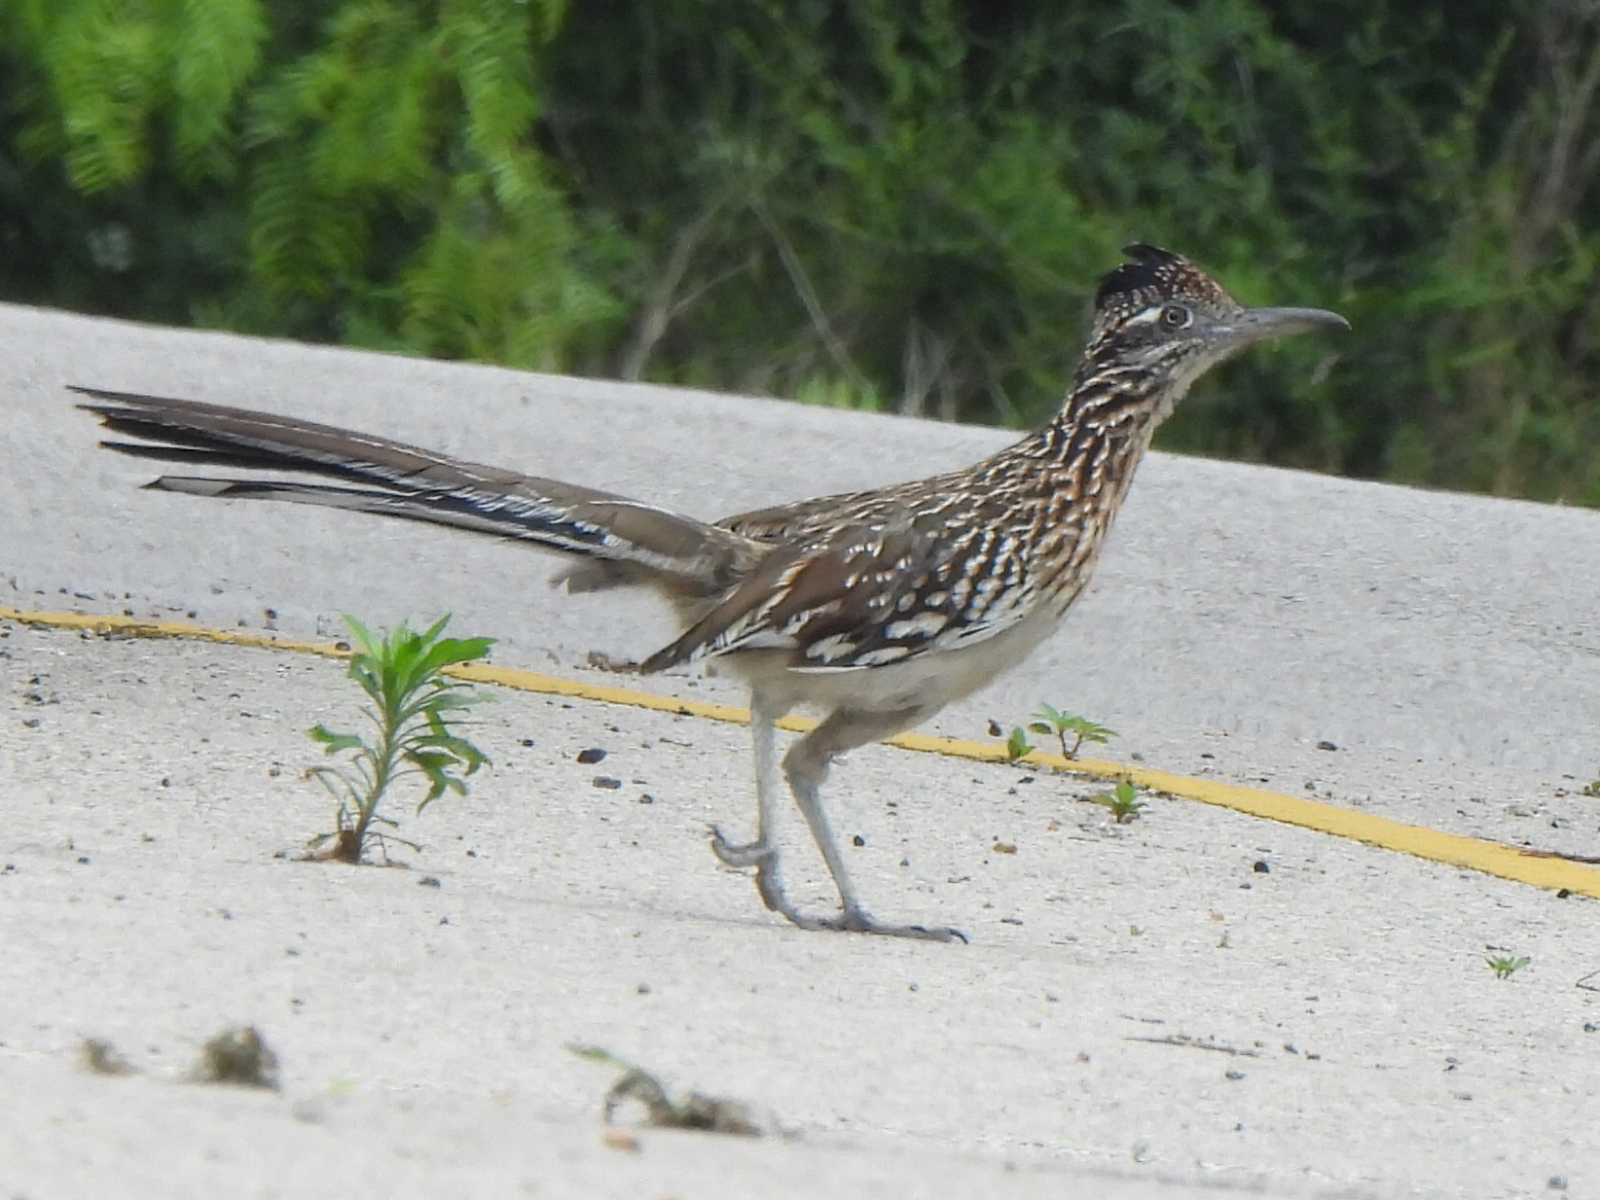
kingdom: Animalia
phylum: Chordata
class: Aves
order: Cuculiformes
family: Cuculidae
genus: Geococcyx
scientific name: Geococcyx californianus
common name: Greater roadrunner
